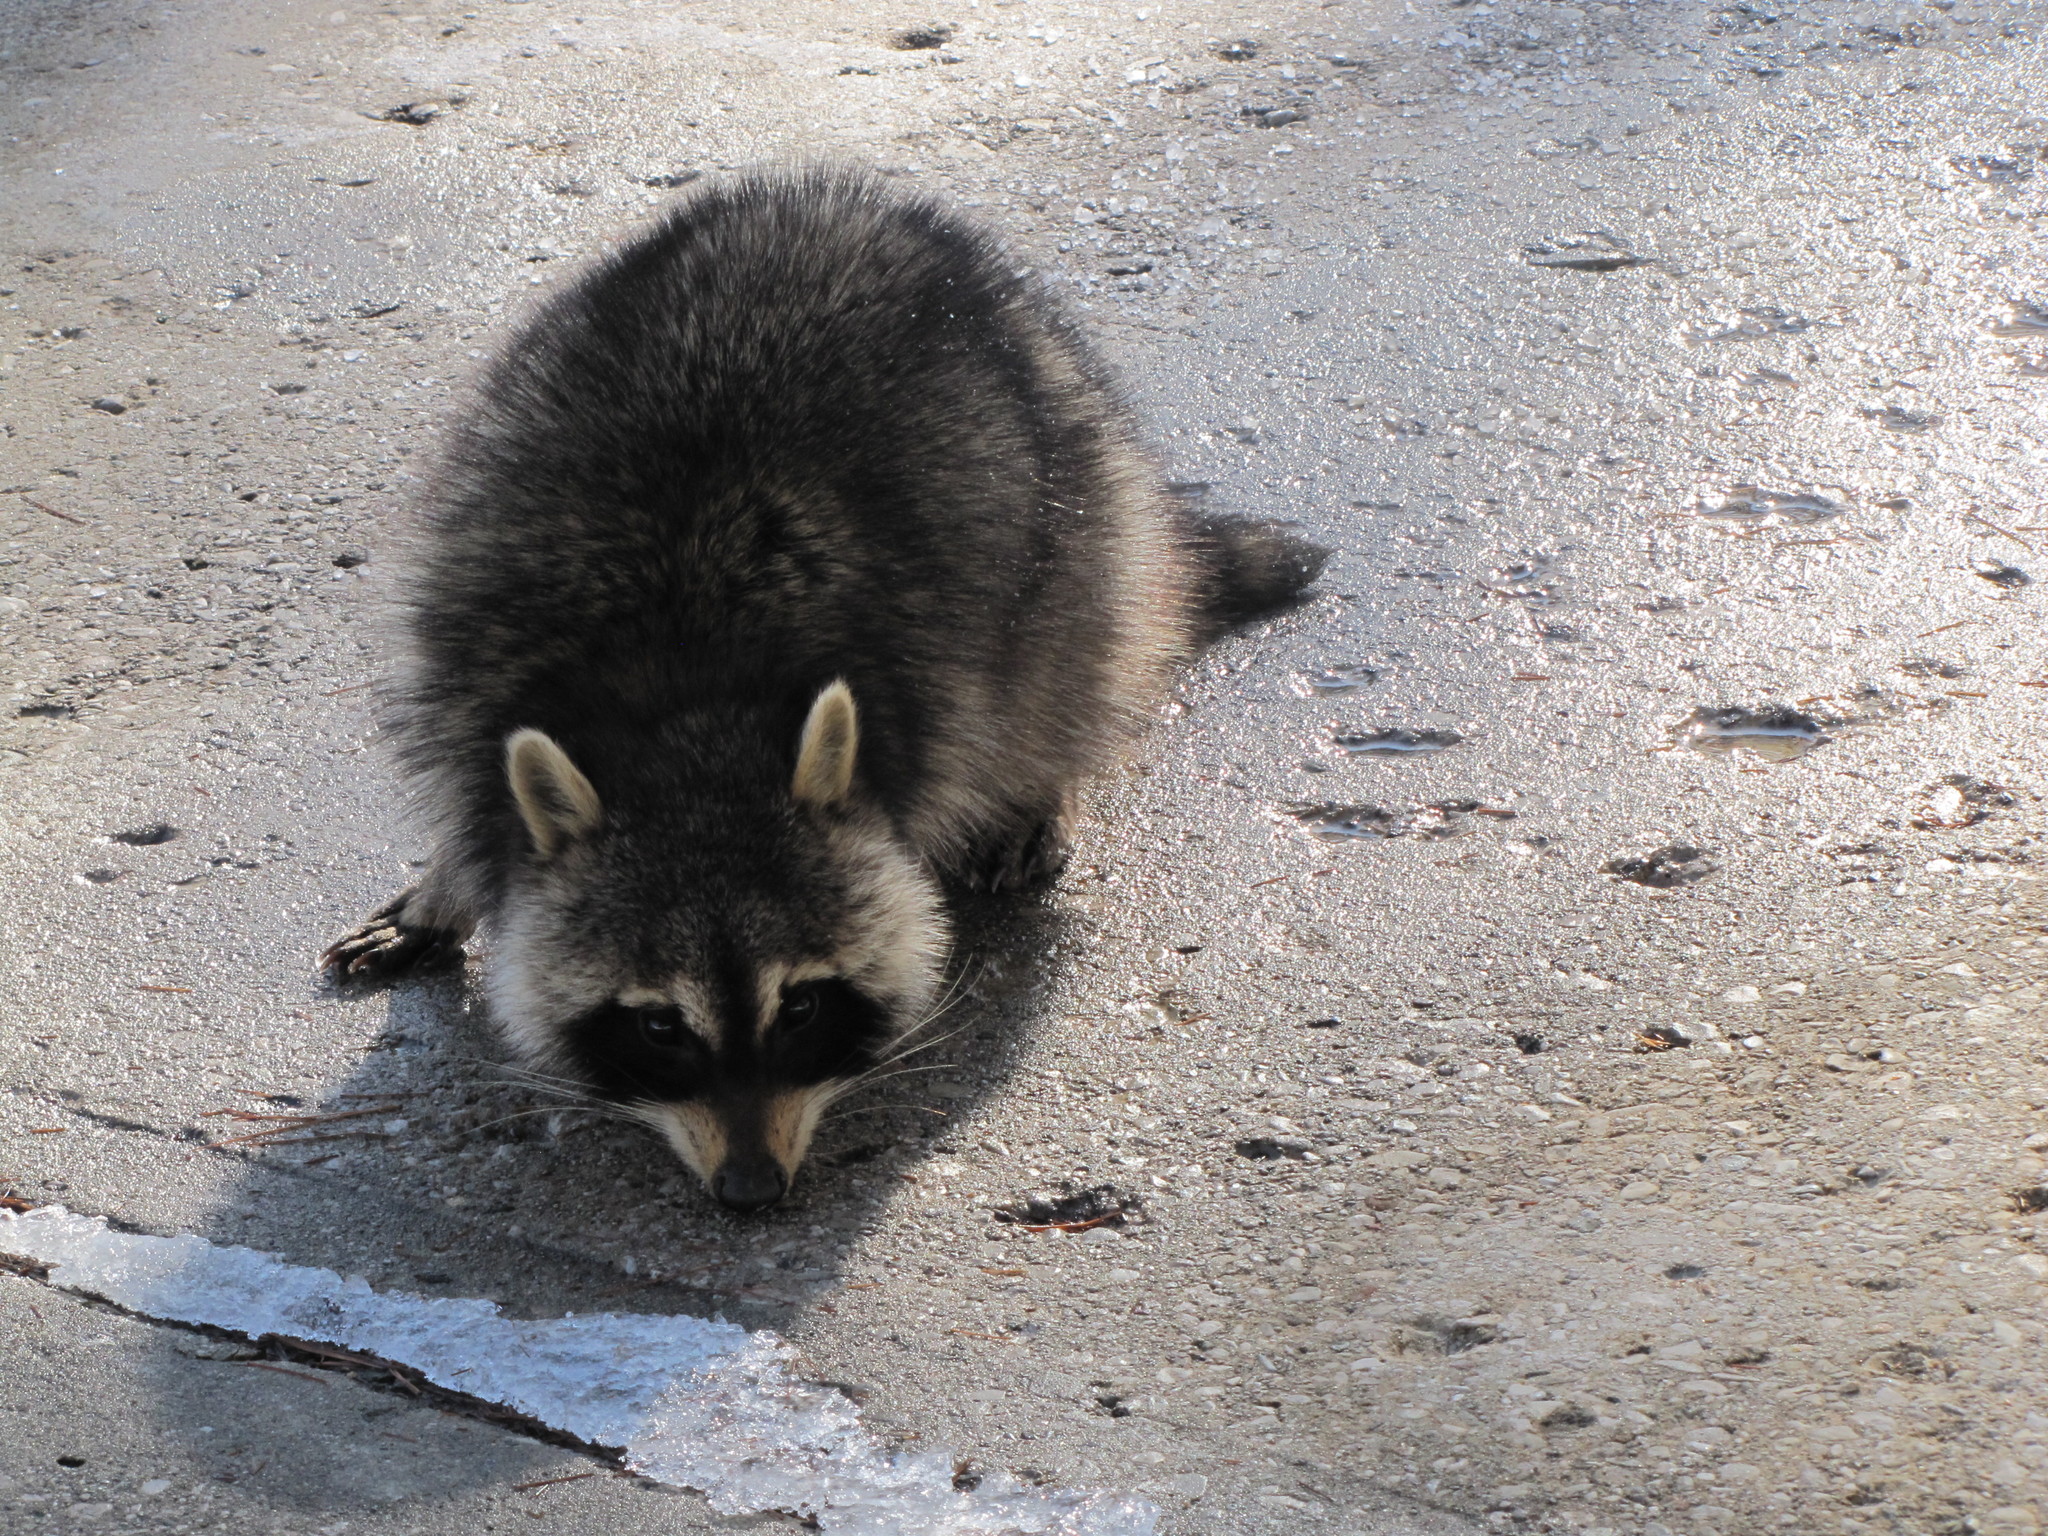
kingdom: Animalia
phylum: Chordata
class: Mammalia
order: Carnivora
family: Procyonidae
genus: Procyon
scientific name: Procyon lotor
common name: Raccoon
